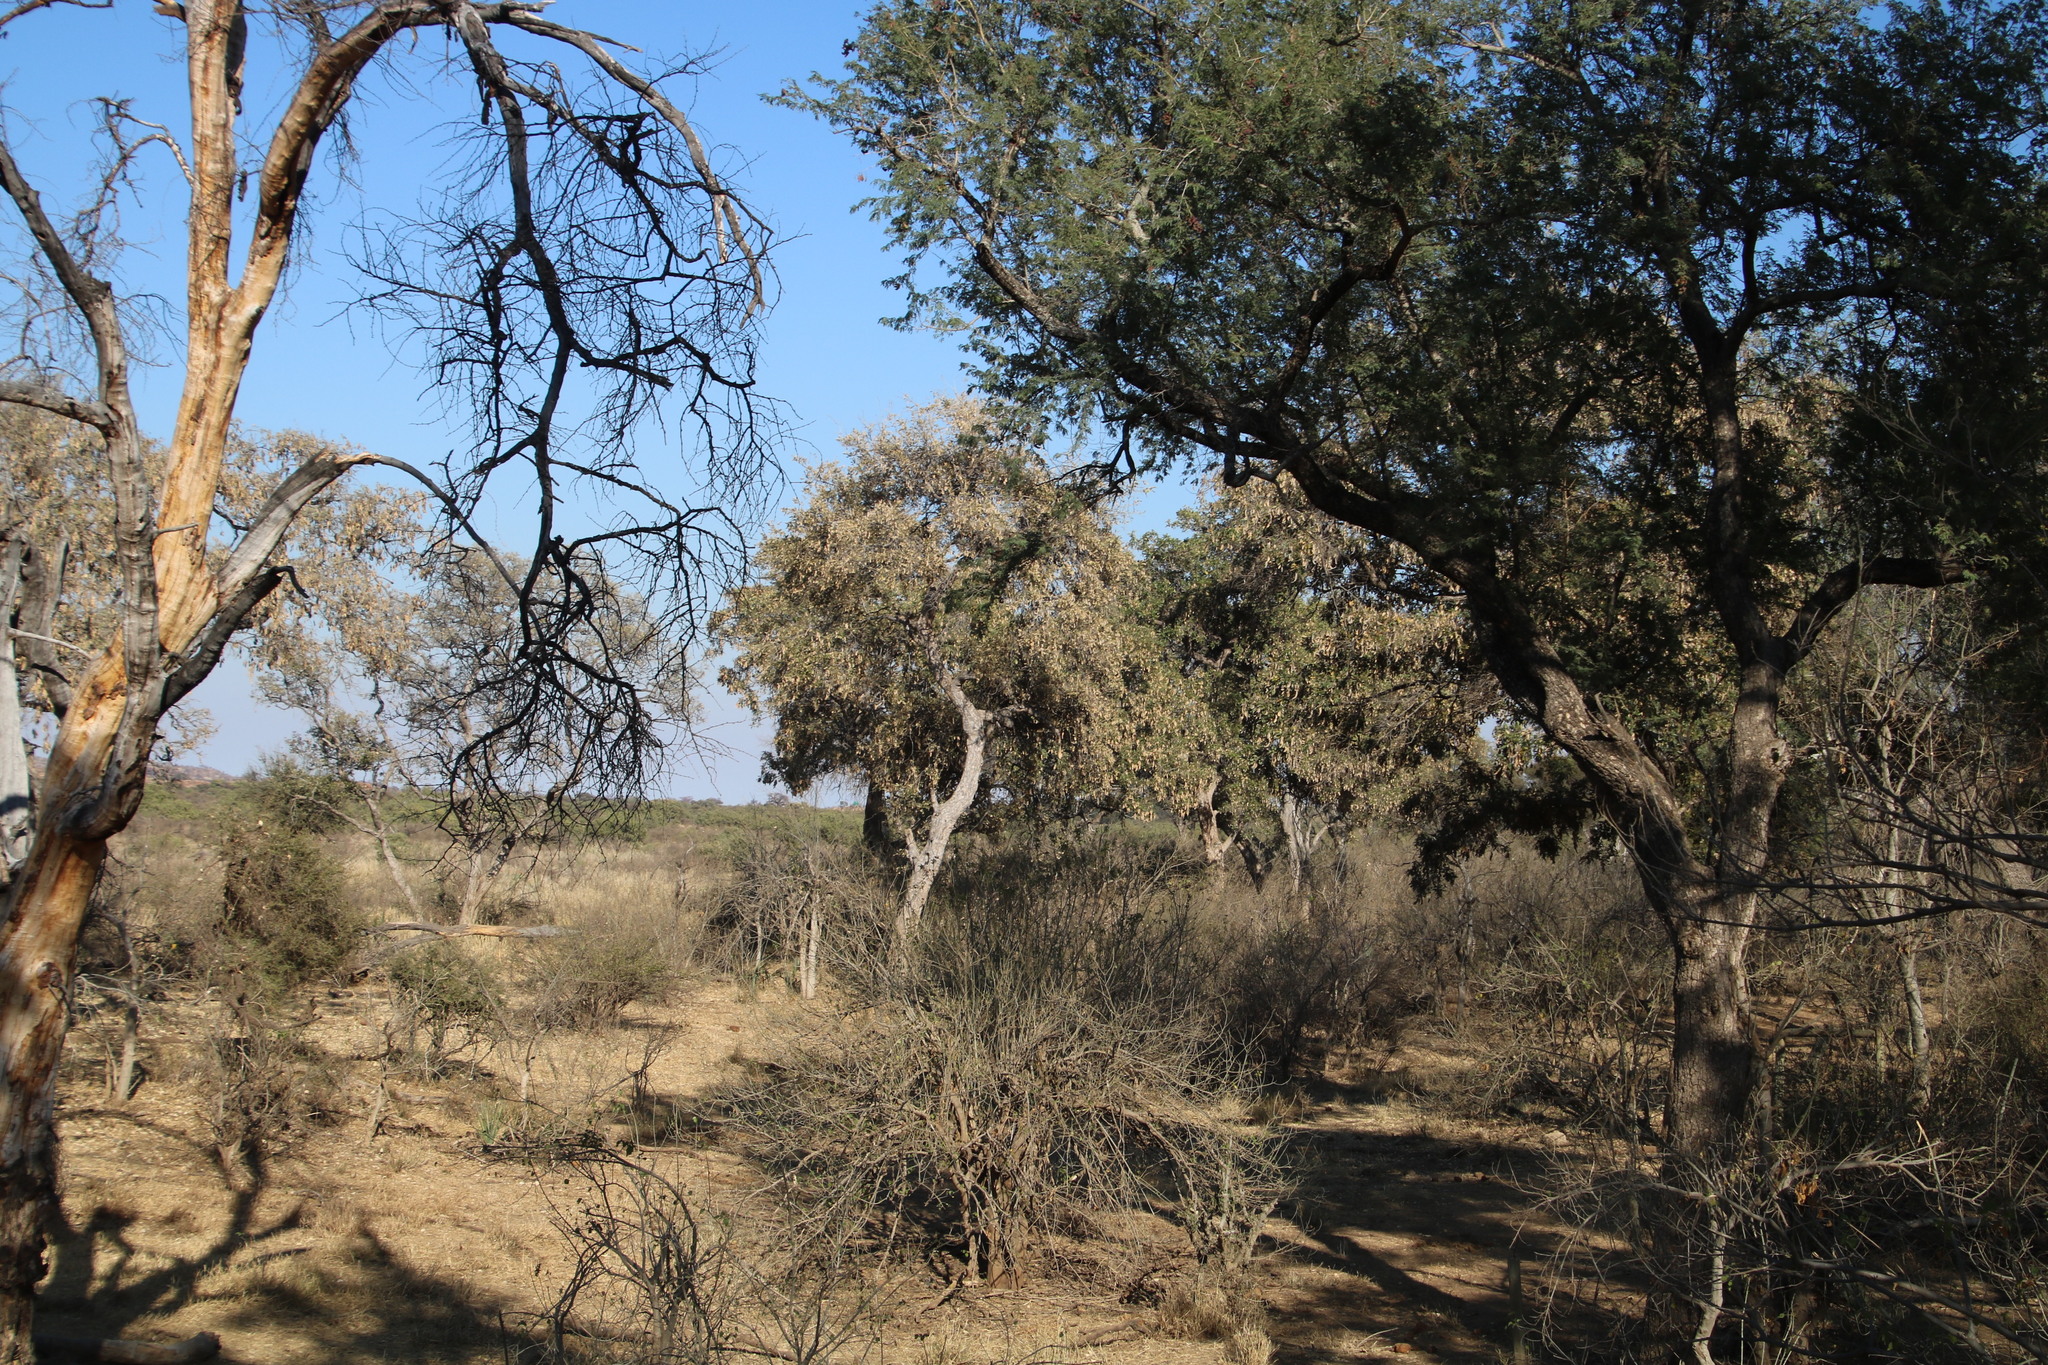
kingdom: Plantae
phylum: Tracheophyta
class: Magnoliopsida
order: Fabales
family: Fabaceae
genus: Philenoptera
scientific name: Philenoptera violacea
